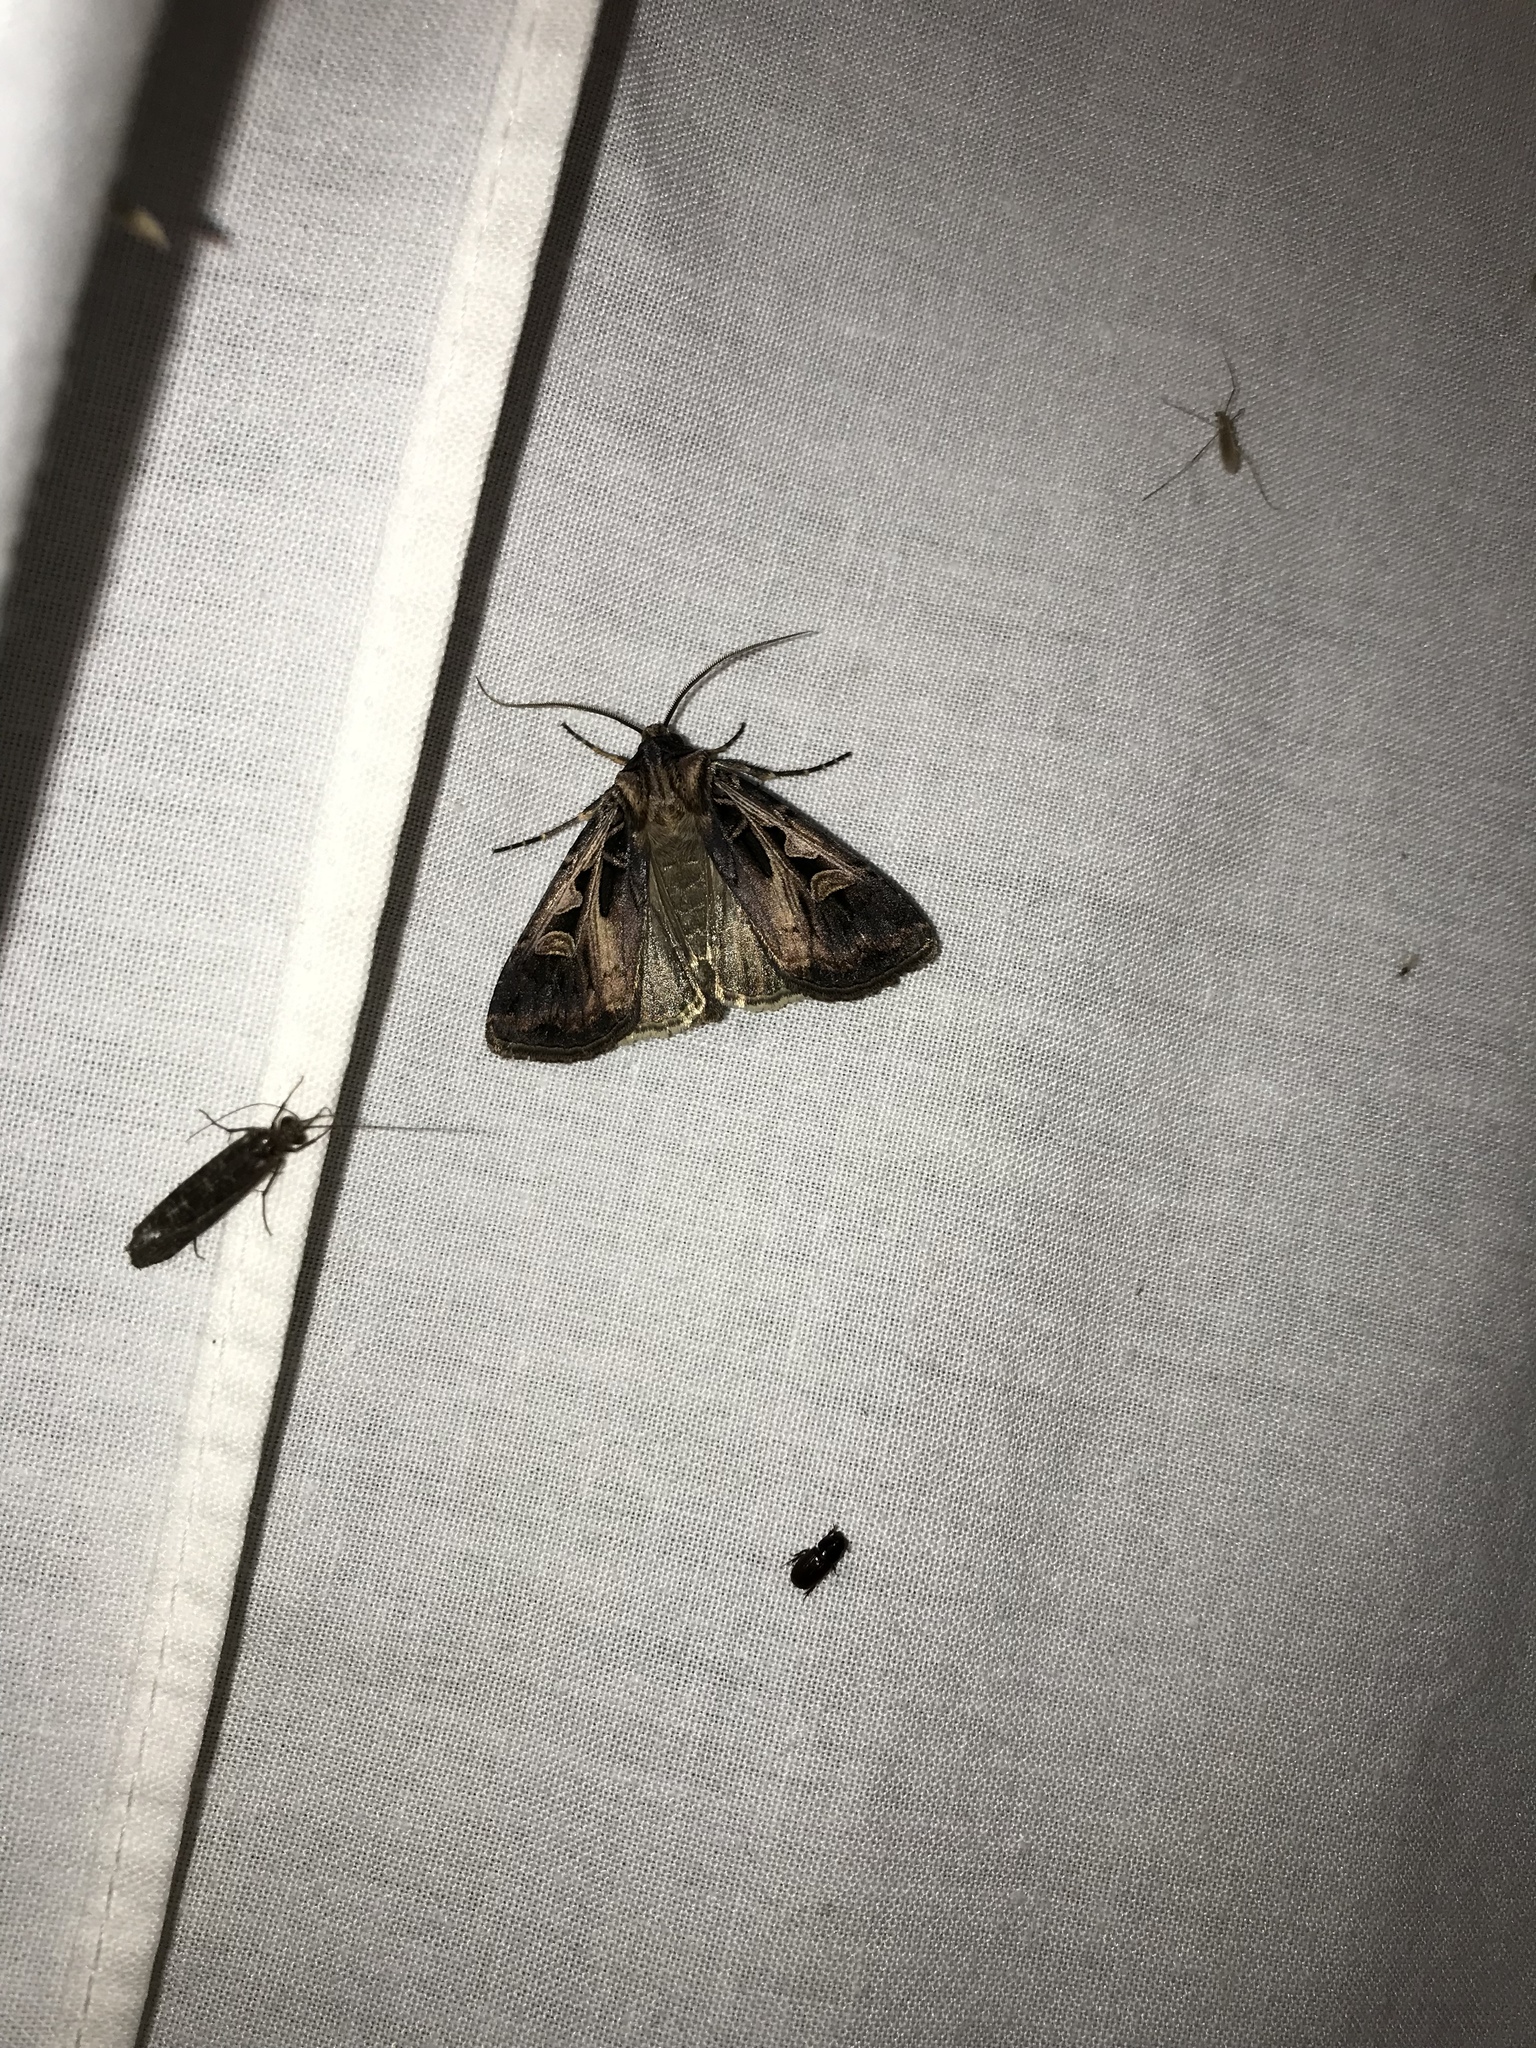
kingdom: Animalia
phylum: Arthropoda
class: Insecta
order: Lepidoptera
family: Noctuidae
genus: Feltia
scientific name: Feltia herilis
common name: Master's dart
